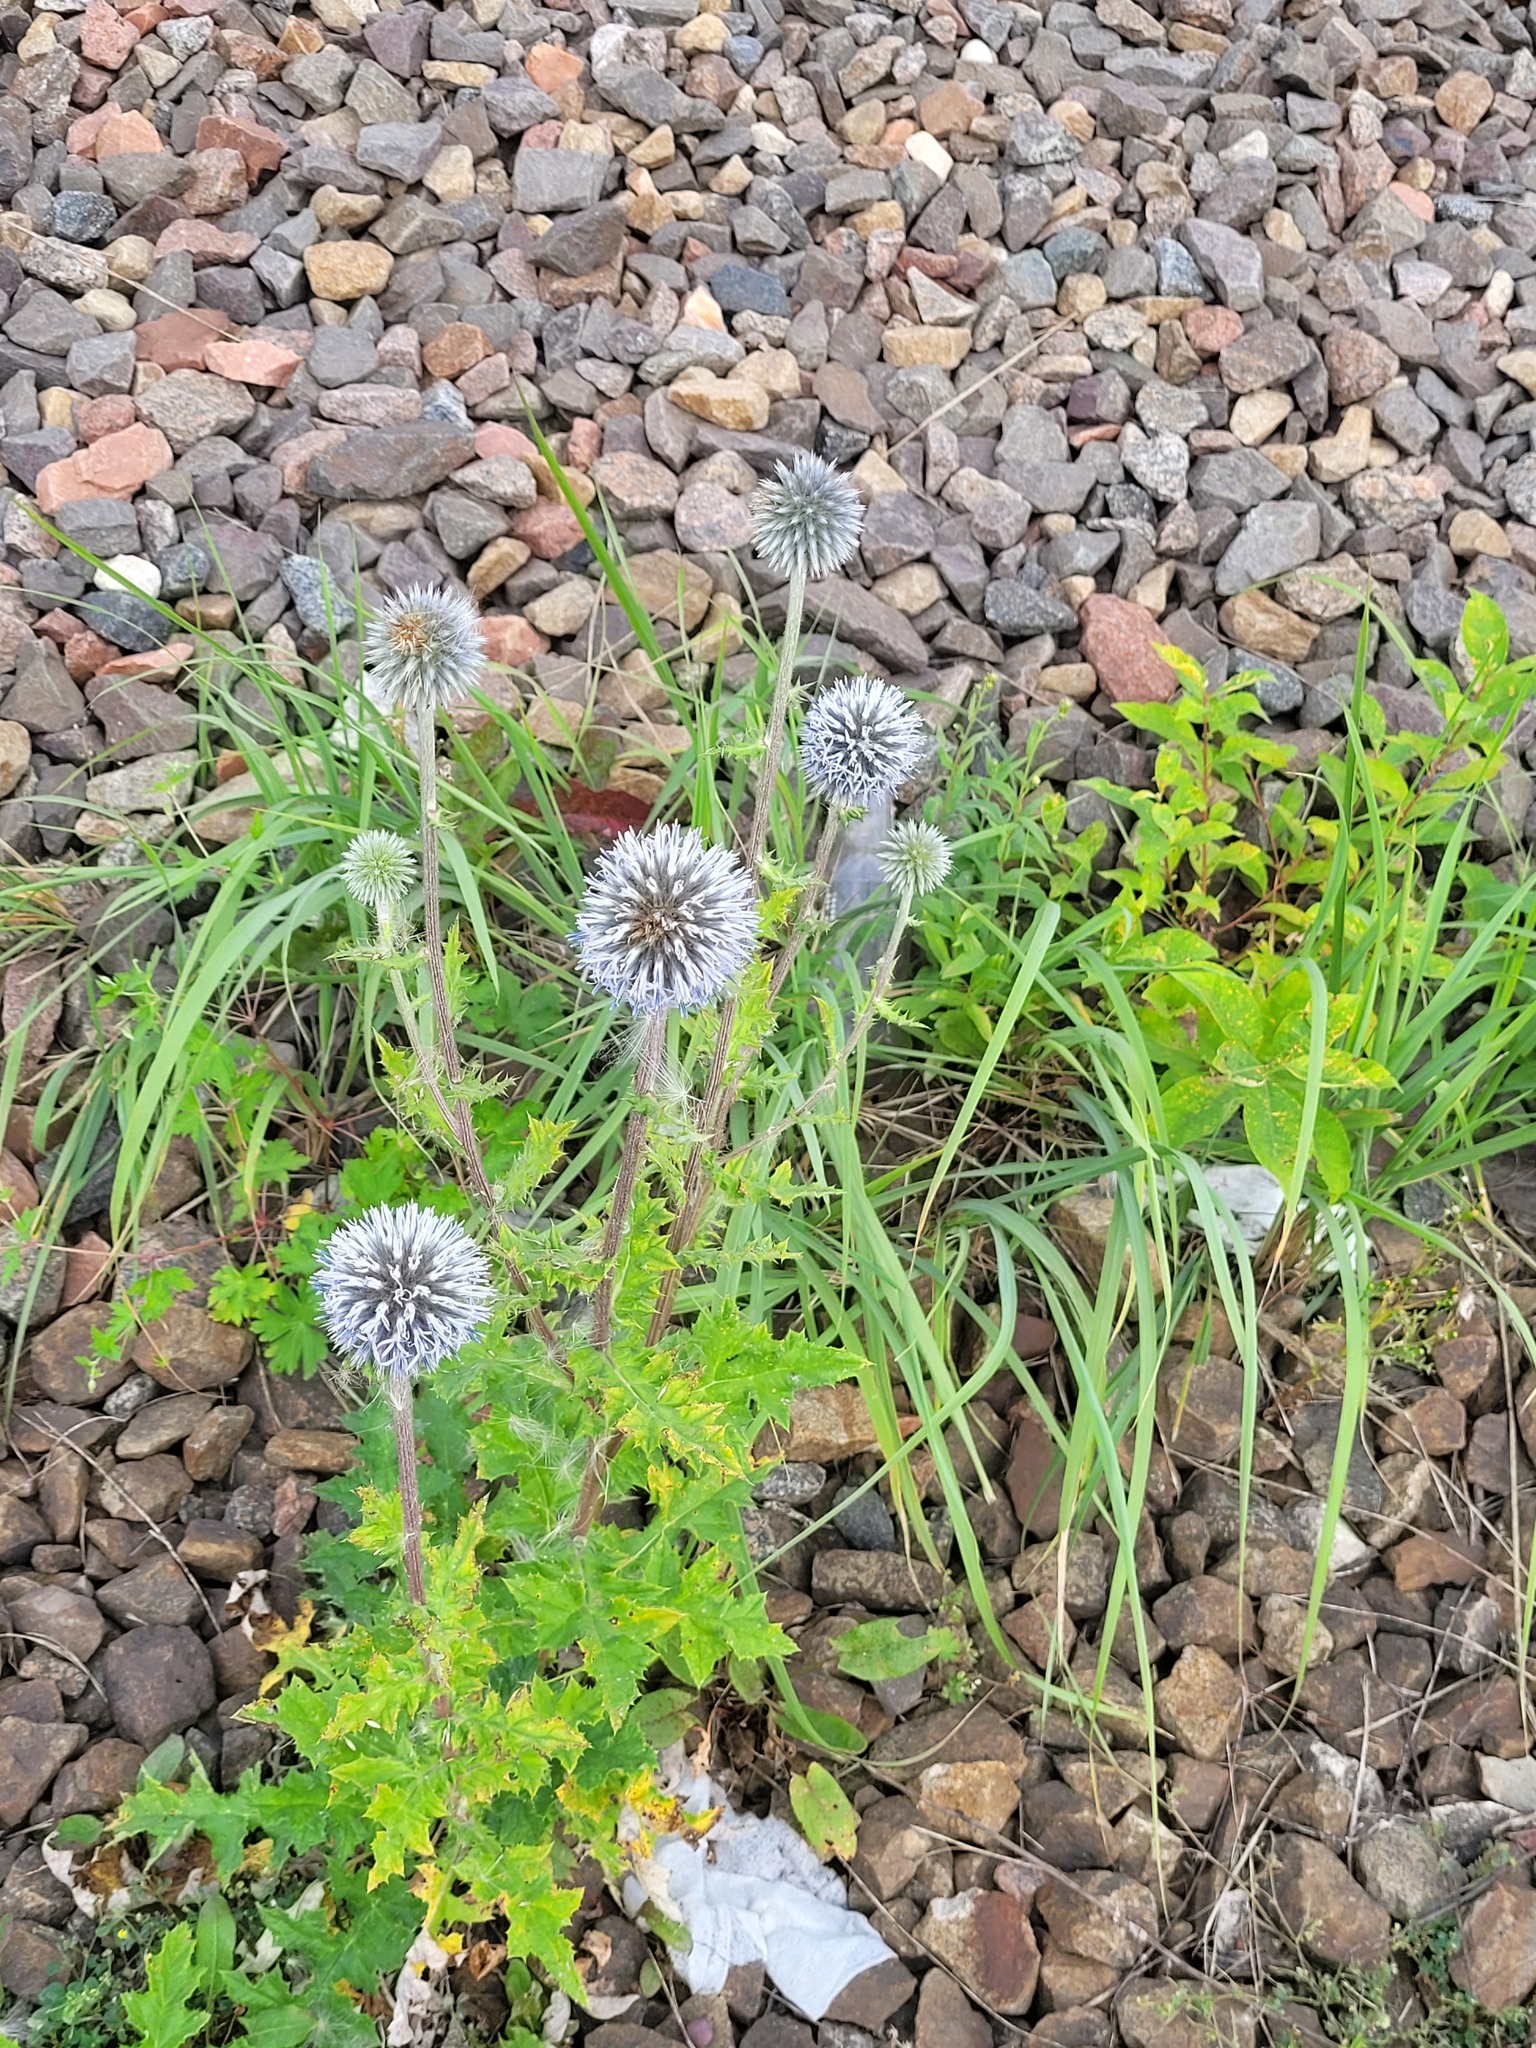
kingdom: Plantae
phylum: Tracheophyta
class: Magnoliopsida
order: Asterales
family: Asteraceae
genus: Echinops
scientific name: Echinops sphaerocephalus
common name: Glandular globe-thistle
